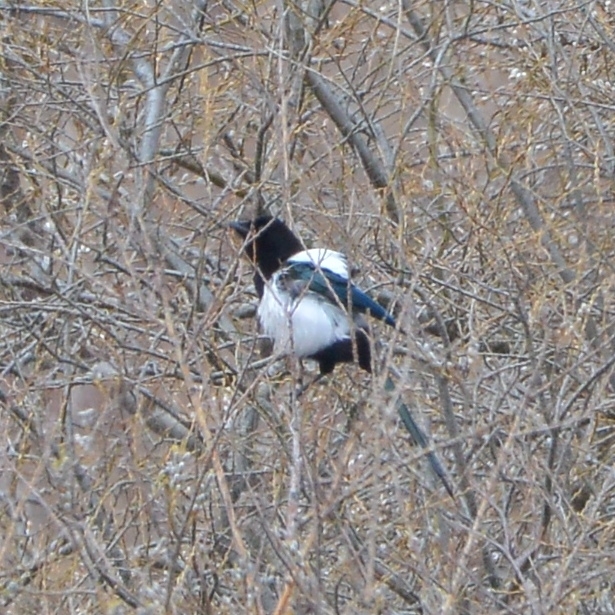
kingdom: Animalia
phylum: Chordata
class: Aves
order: Passeriformes
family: Corvidae
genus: Pica
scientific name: Pica pica
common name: Eurasian magpie
